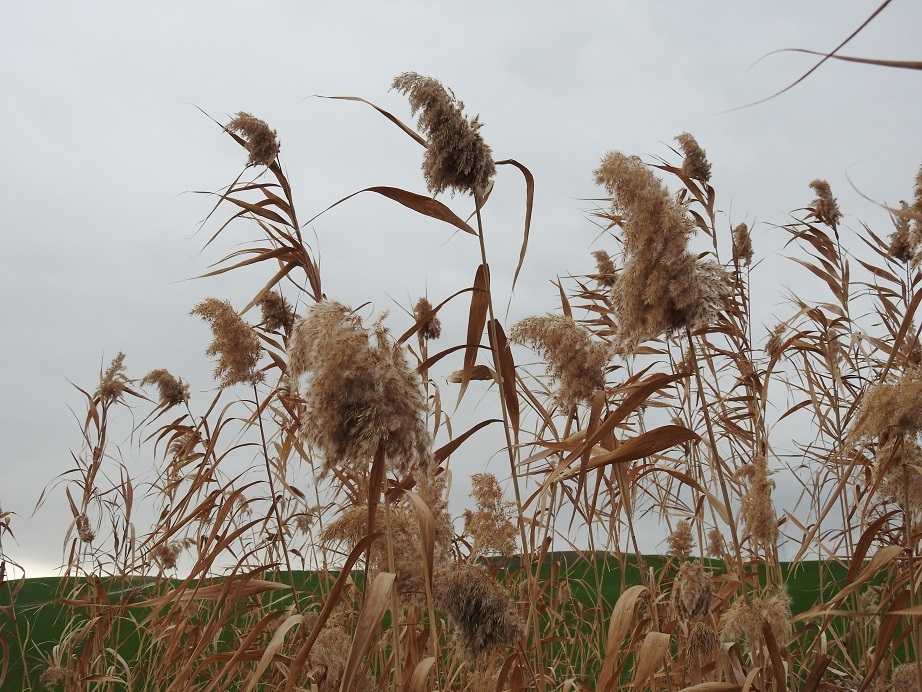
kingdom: Plantae
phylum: Tracheophyta
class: Liliopsida
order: Poales
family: Poaceae
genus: Phragmites
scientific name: Phragmites australis
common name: Common reed
